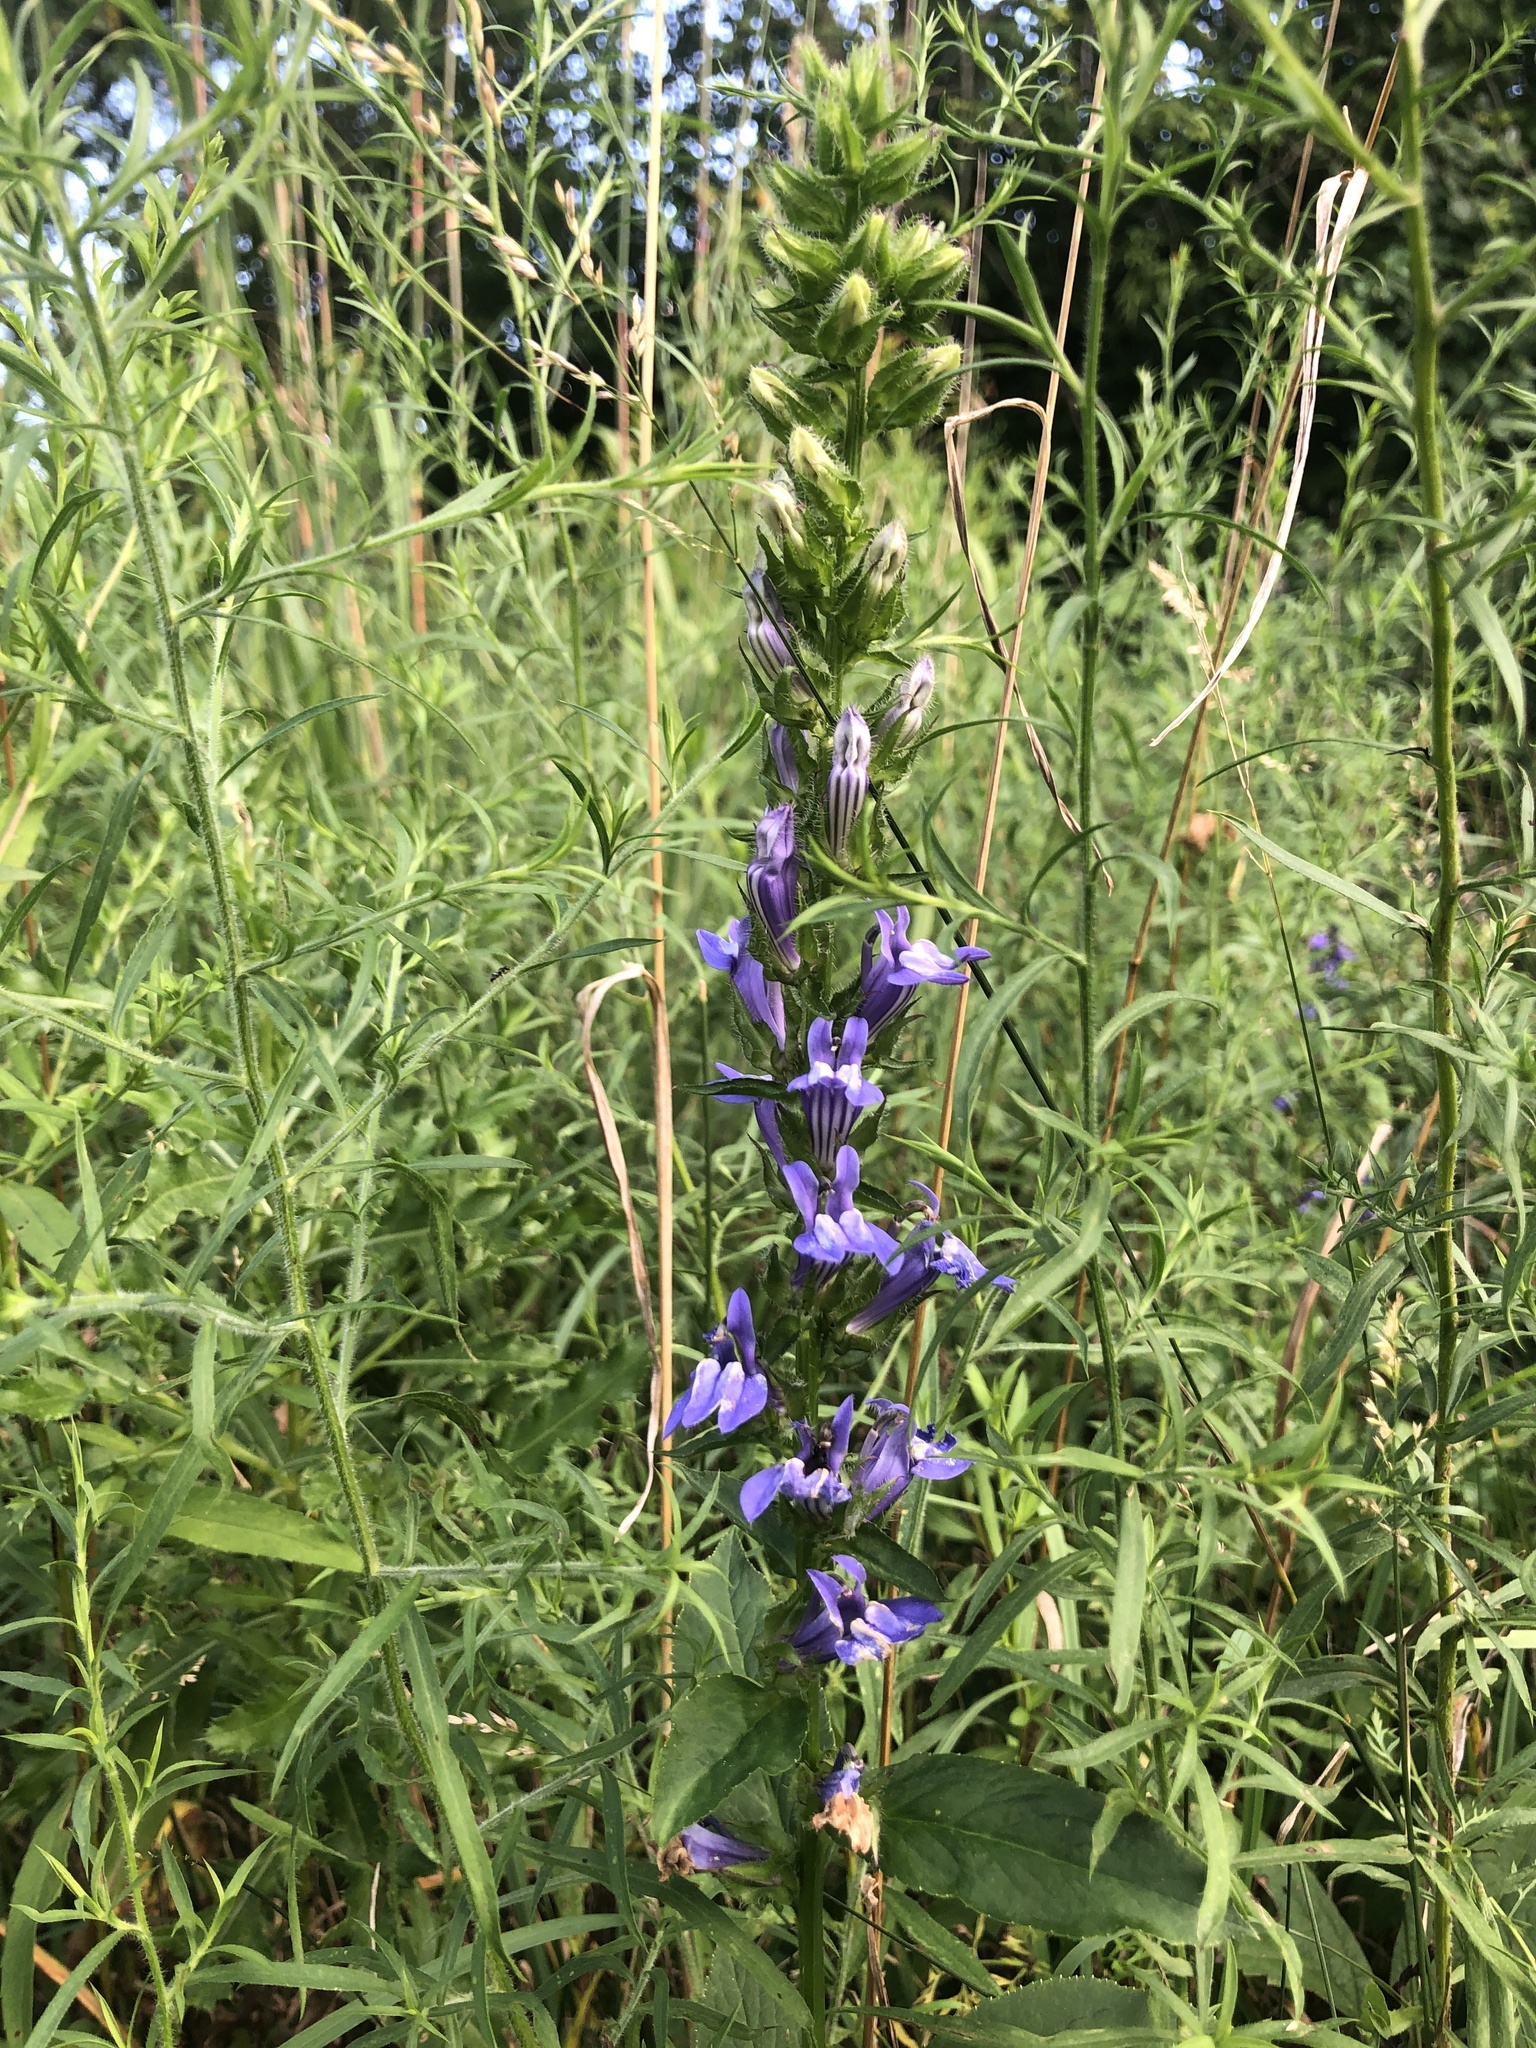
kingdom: Plantae
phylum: Tracheophyta
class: Magnoliopsida
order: Asterales
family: Campanulaceae
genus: Lobelia
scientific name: Lobelia siphilitica
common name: Great lobelia
